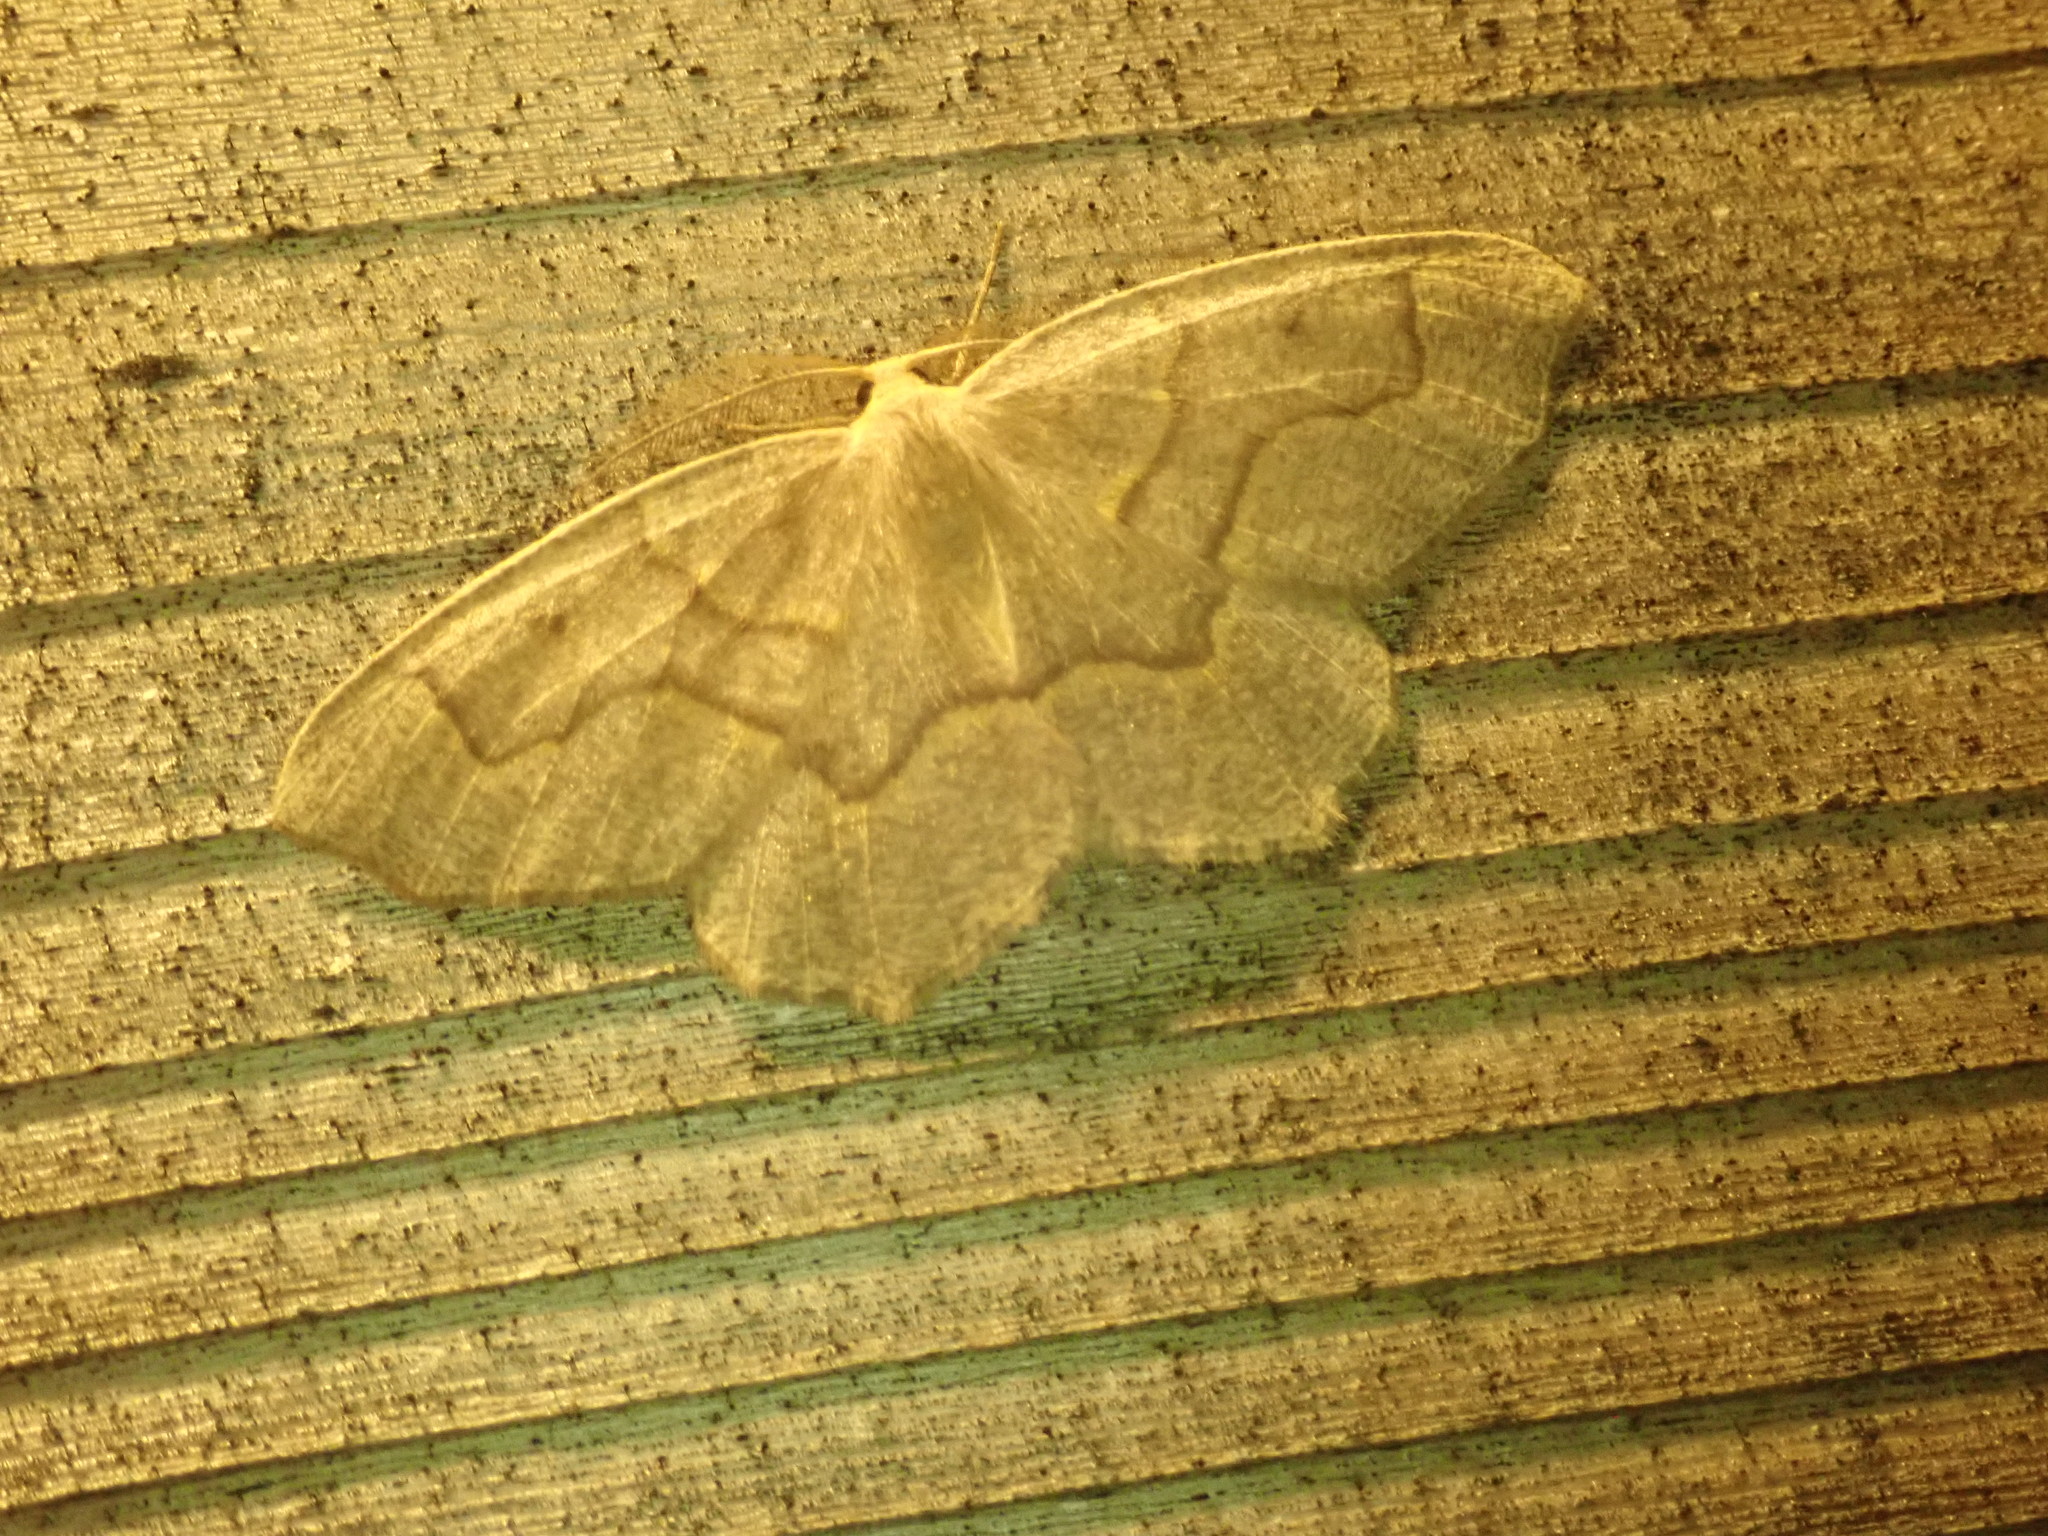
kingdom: Animalia
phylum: Arthropoda
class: Insecta
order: Lepidoptera
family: Geometridae
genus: Lambdina
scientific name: Lambdina fiscellaria
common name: Hemlock looper
